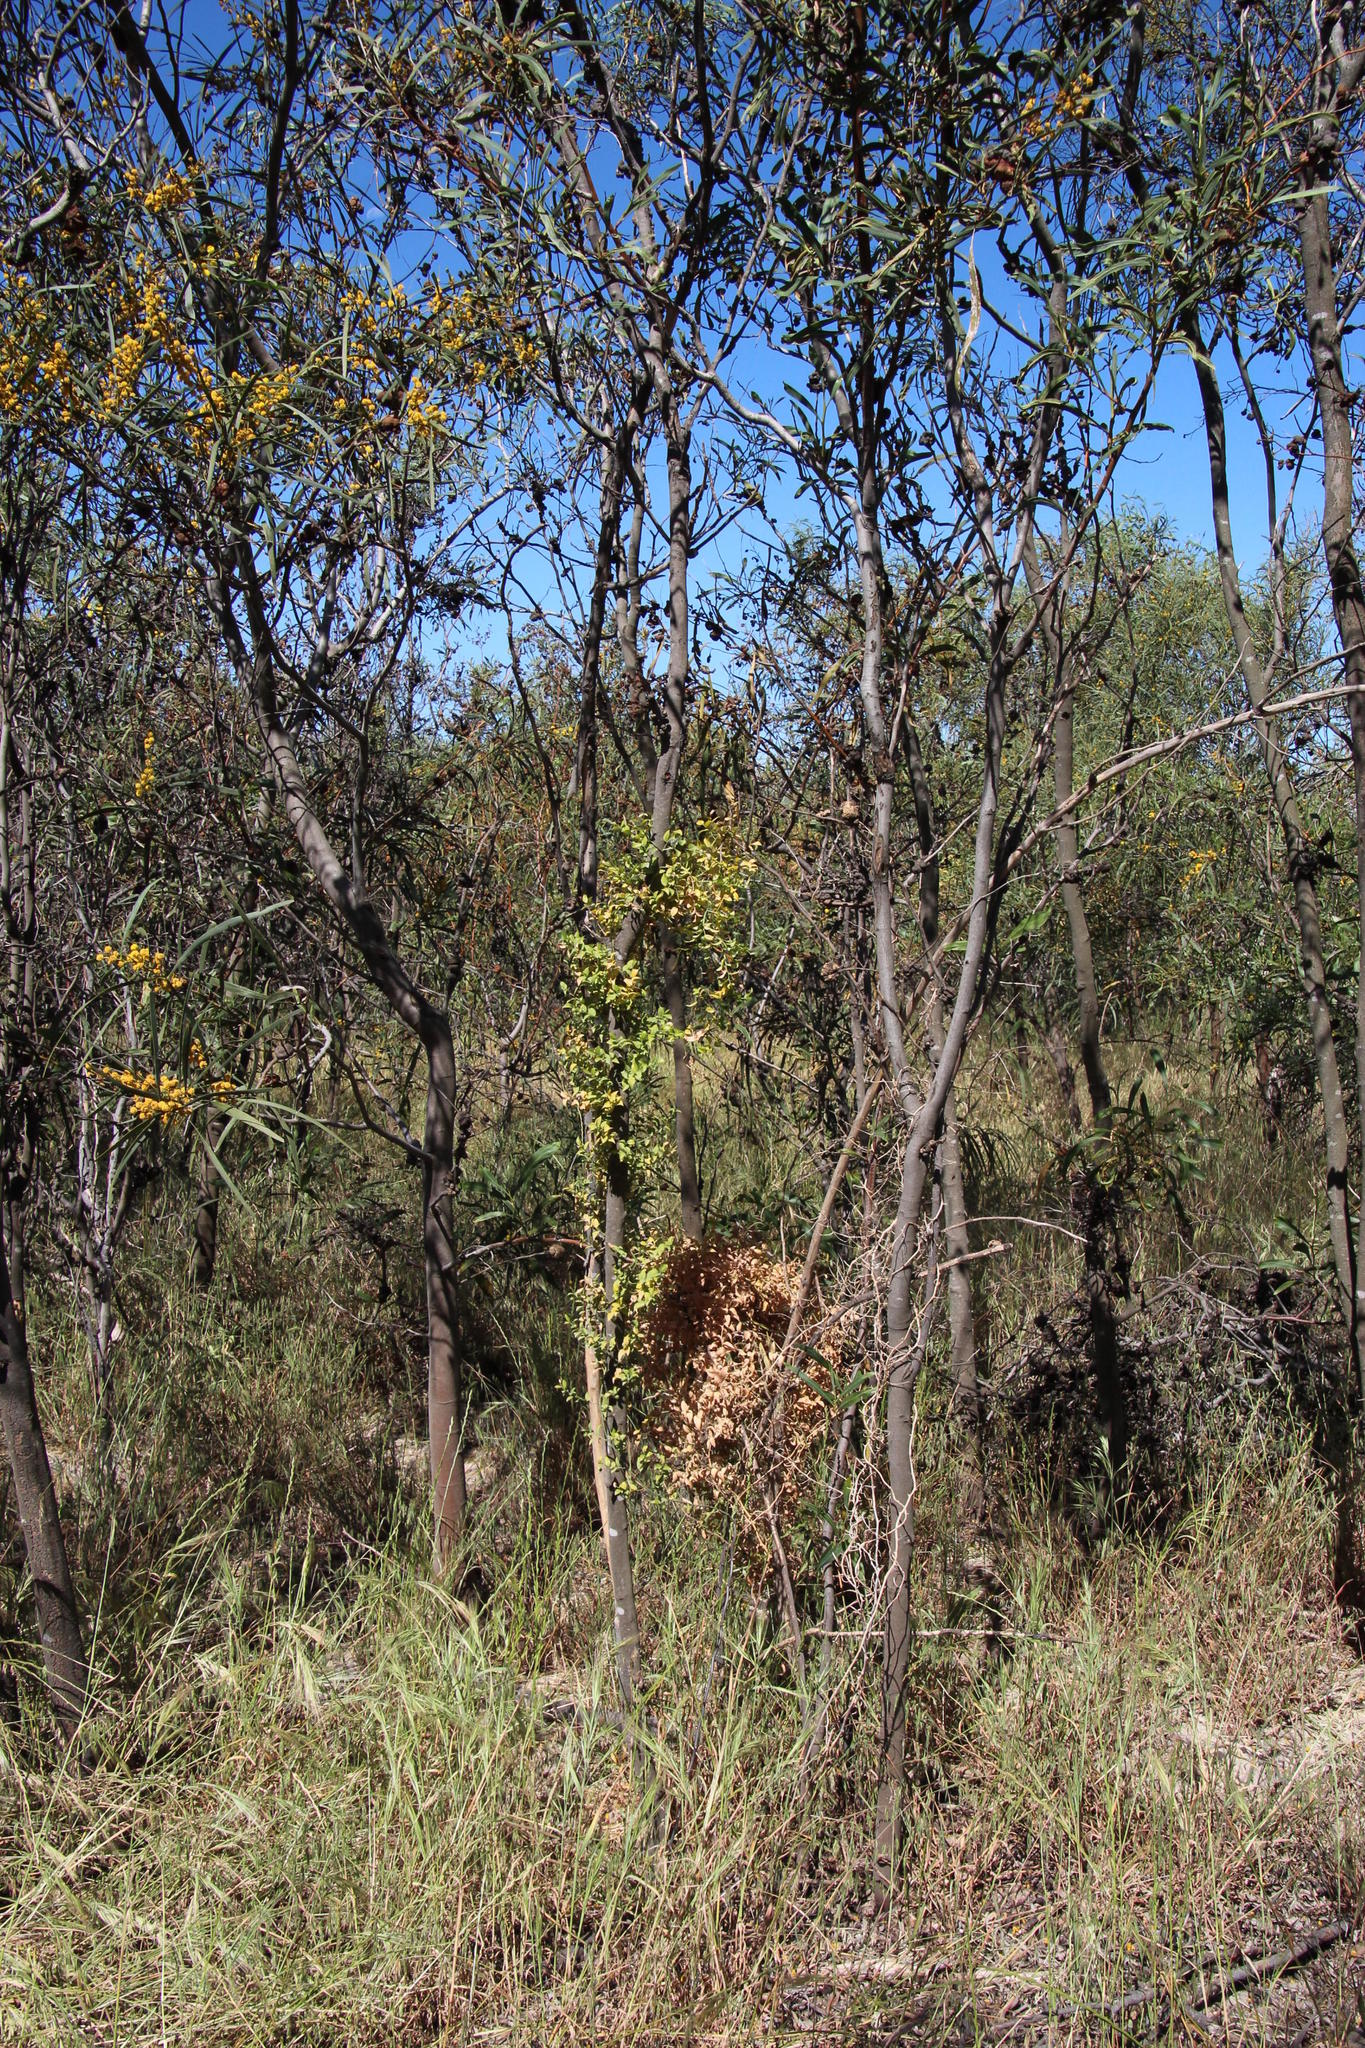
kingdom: Plantae
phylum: Tracheophyta
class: Liliopsida
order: Asparagales
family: Asparagaceae
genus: Asparagus
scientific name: Asparagus asparagoides
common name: African asparagus fern
